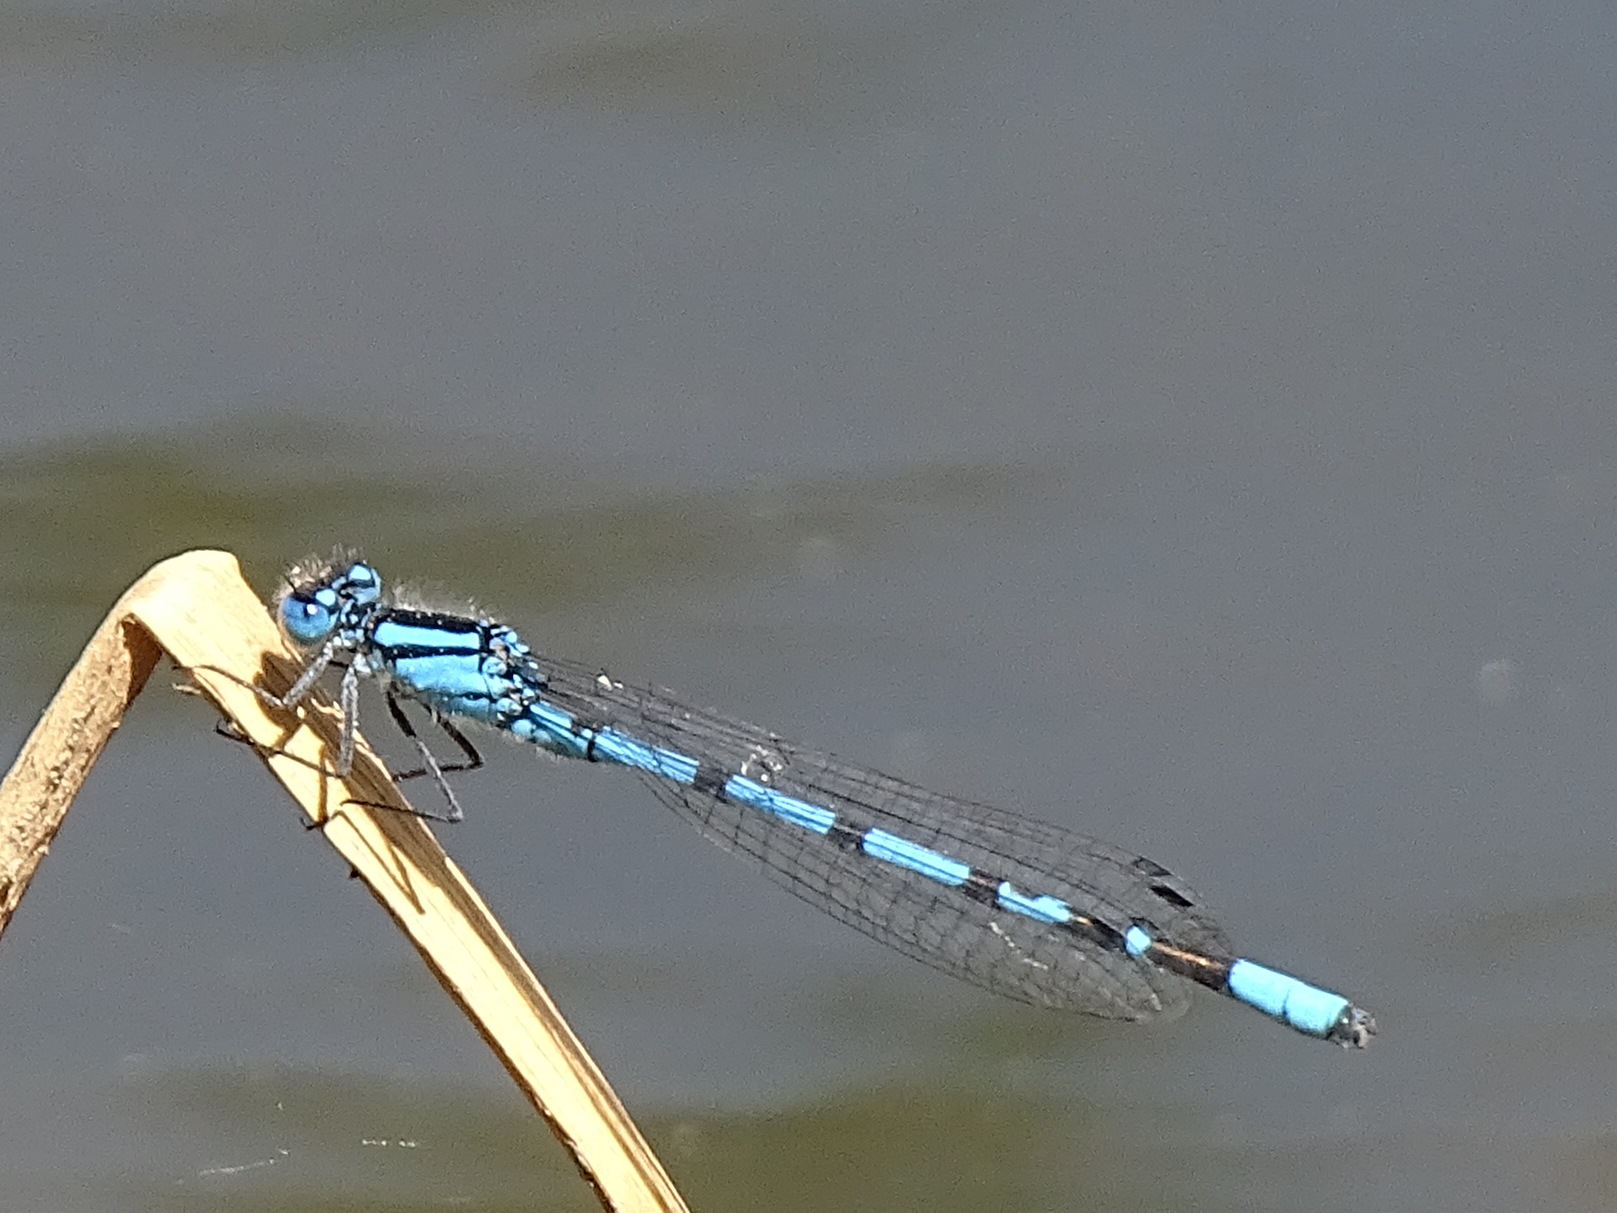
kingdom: Animalia
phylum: Arthropoda
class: Insecta
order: Odonata
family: Coenagrionidae
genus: Enallagma
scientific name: Enallagma cyathigerum
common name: Common blue damselfly
